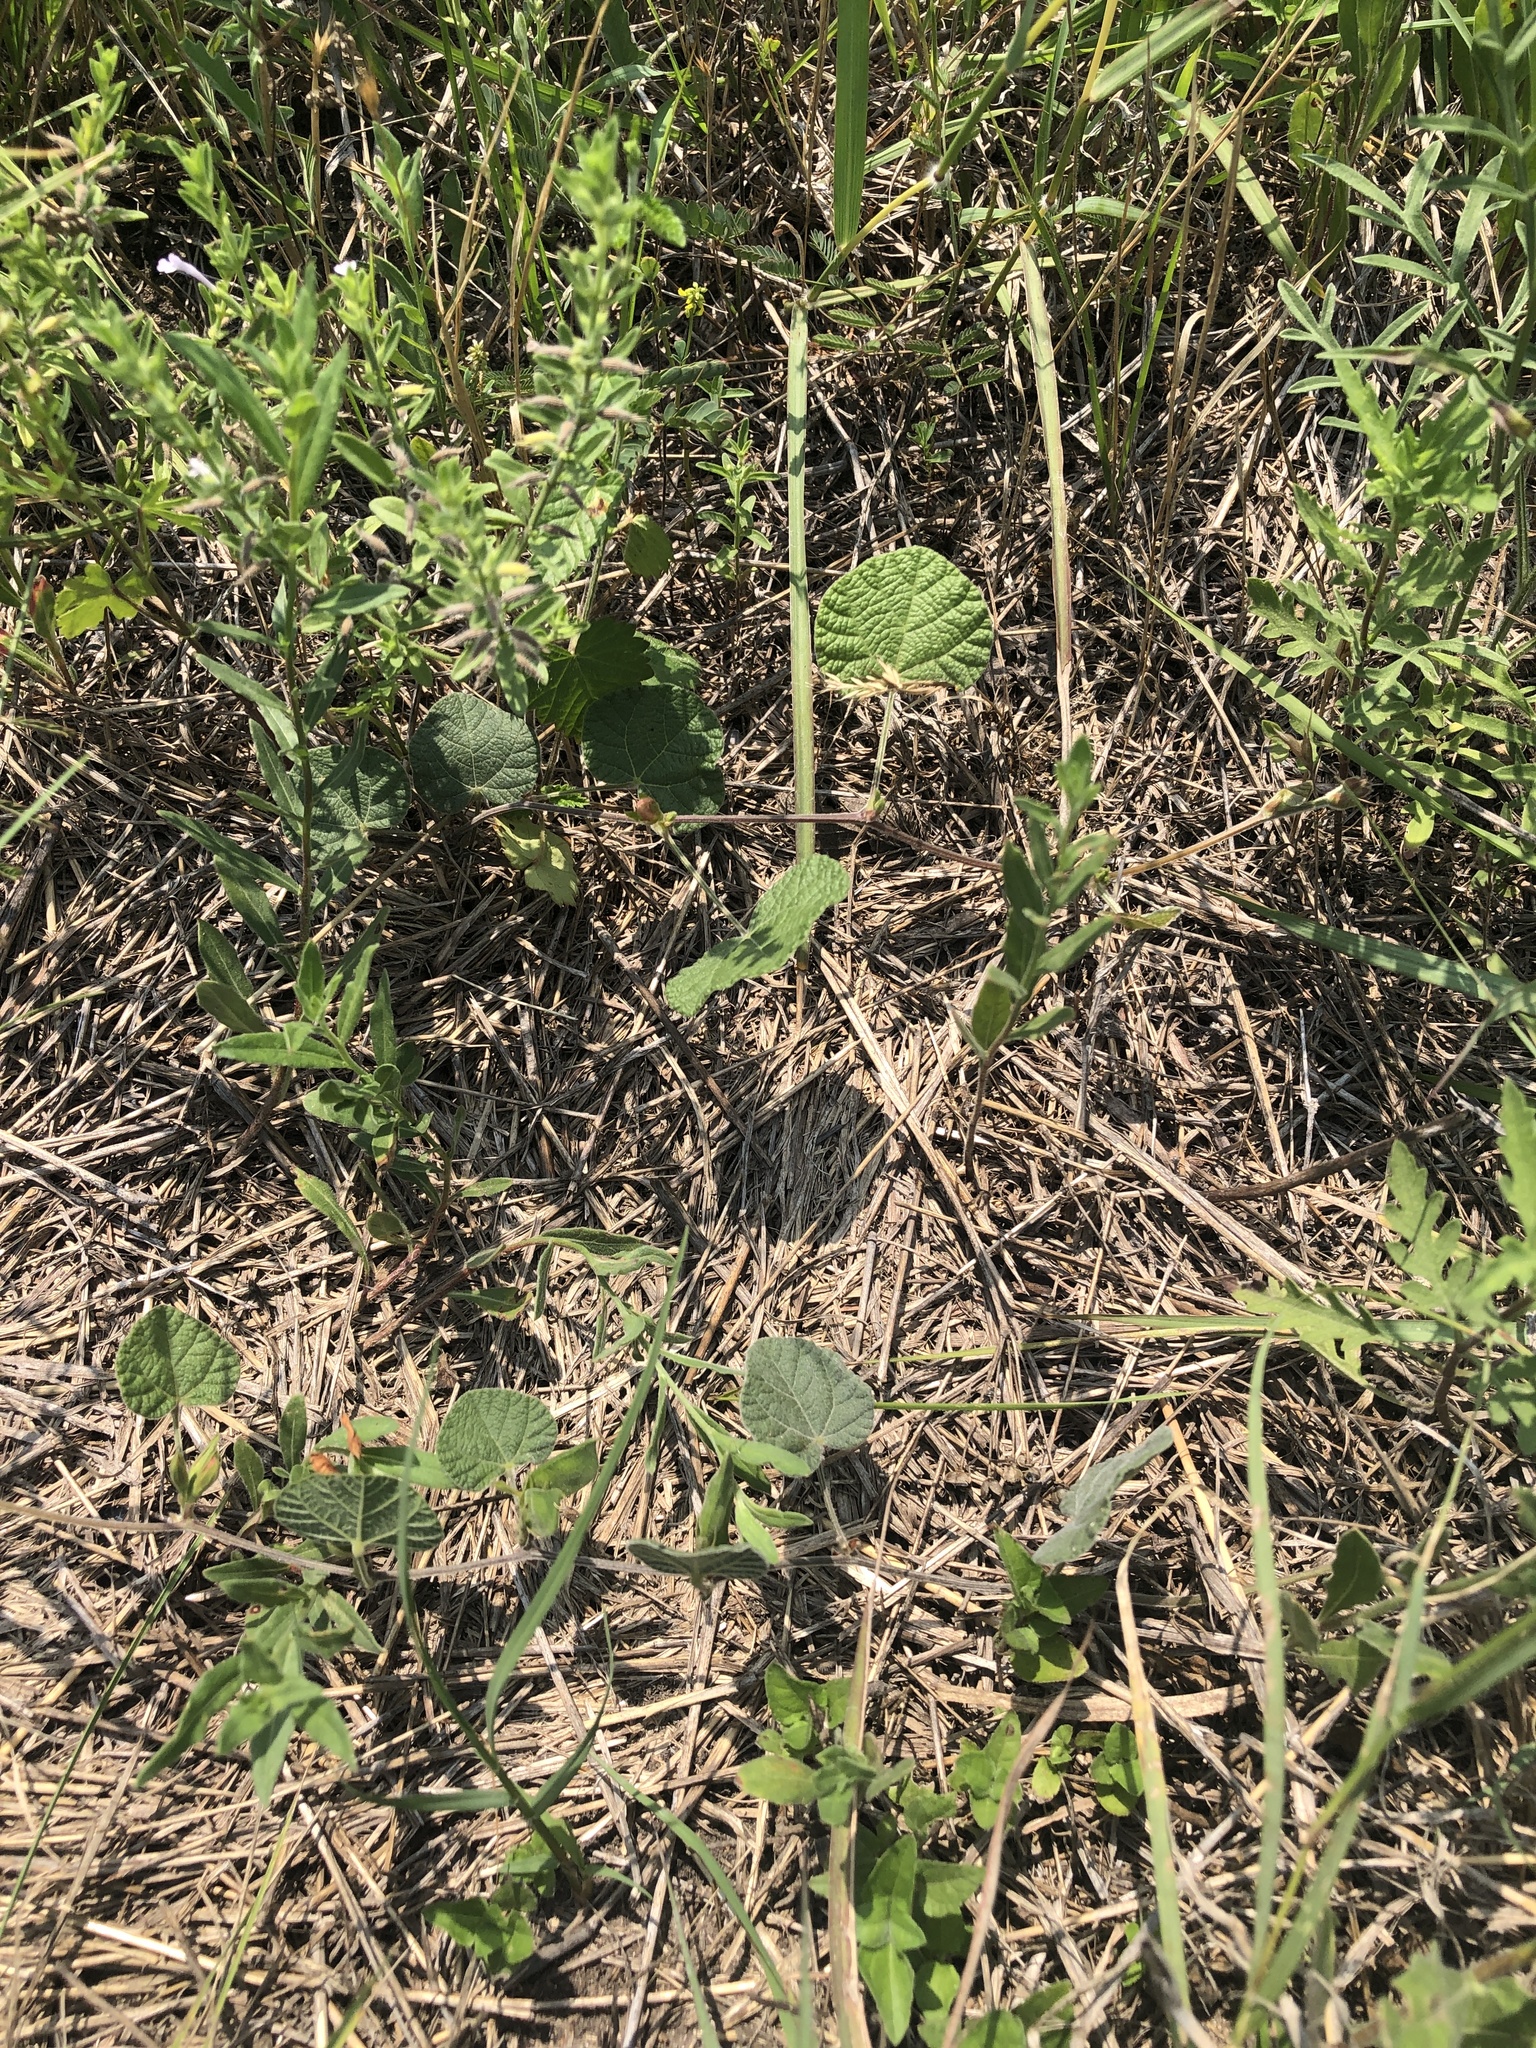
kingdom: Plantae
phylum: Tracheophyta
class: Magnoliopsida
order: Fabales
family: Fabaceae
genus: Rhynchosia
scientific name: Rhynchosia americana
